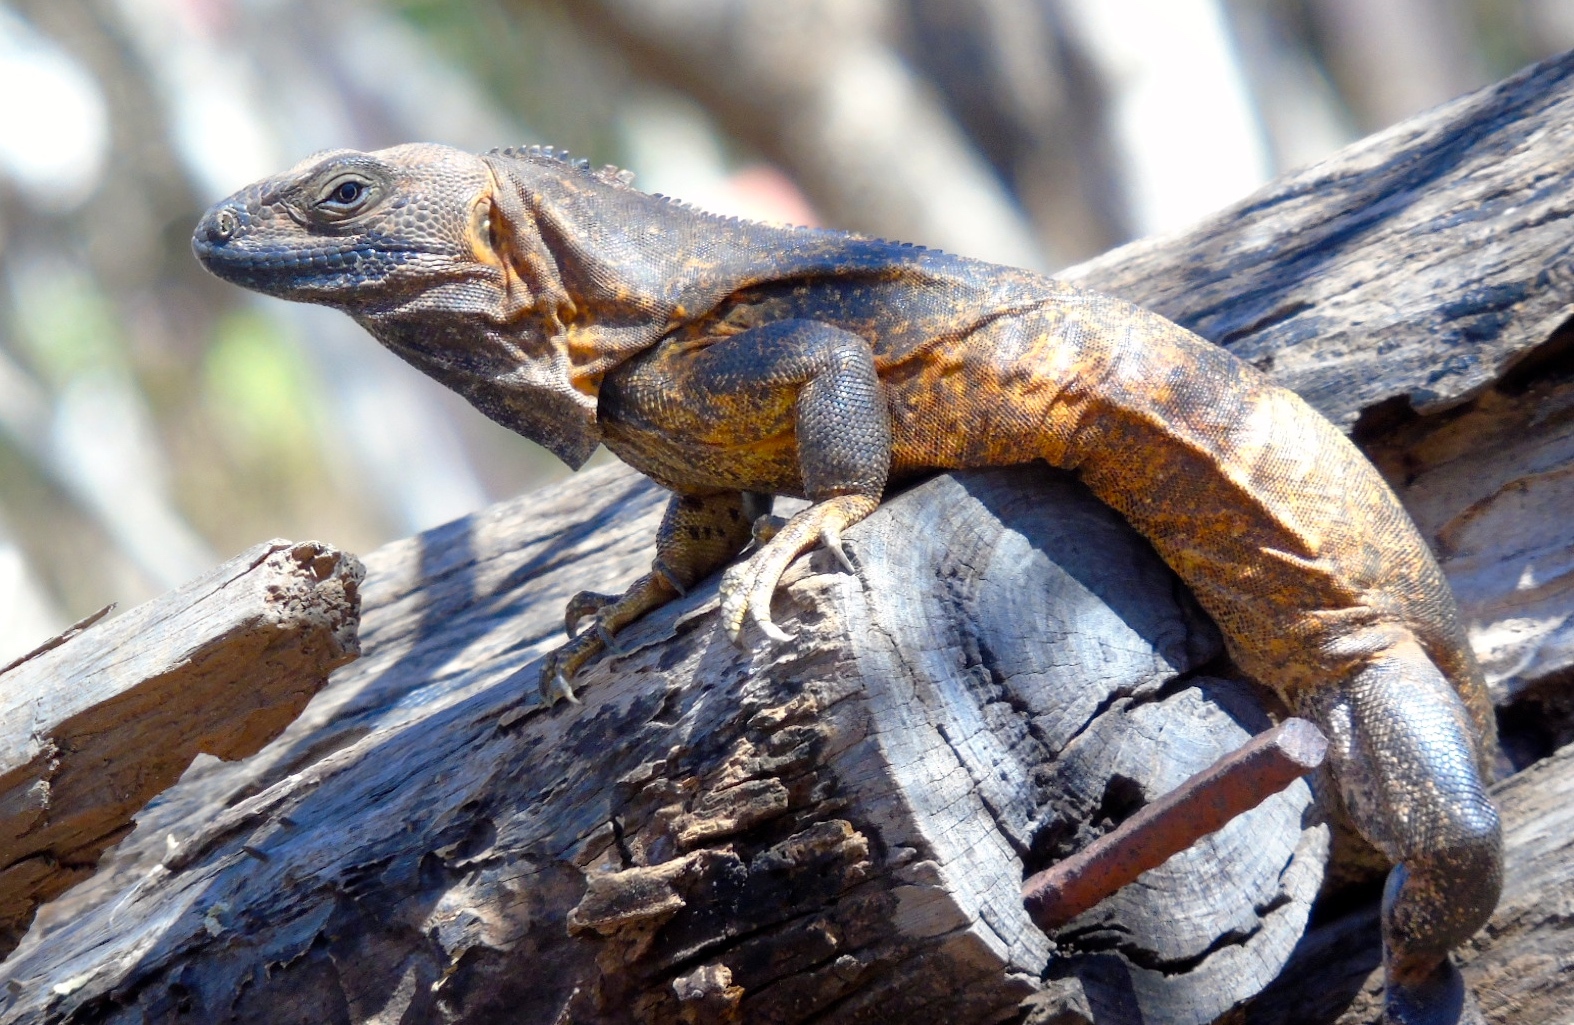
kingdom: Animalia
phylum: Chordata
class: Squamata
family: Iguanidae
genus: Ctenosaura
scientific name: Ctenosaura pectinata
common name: Guerreran spiny-tailed iguana
